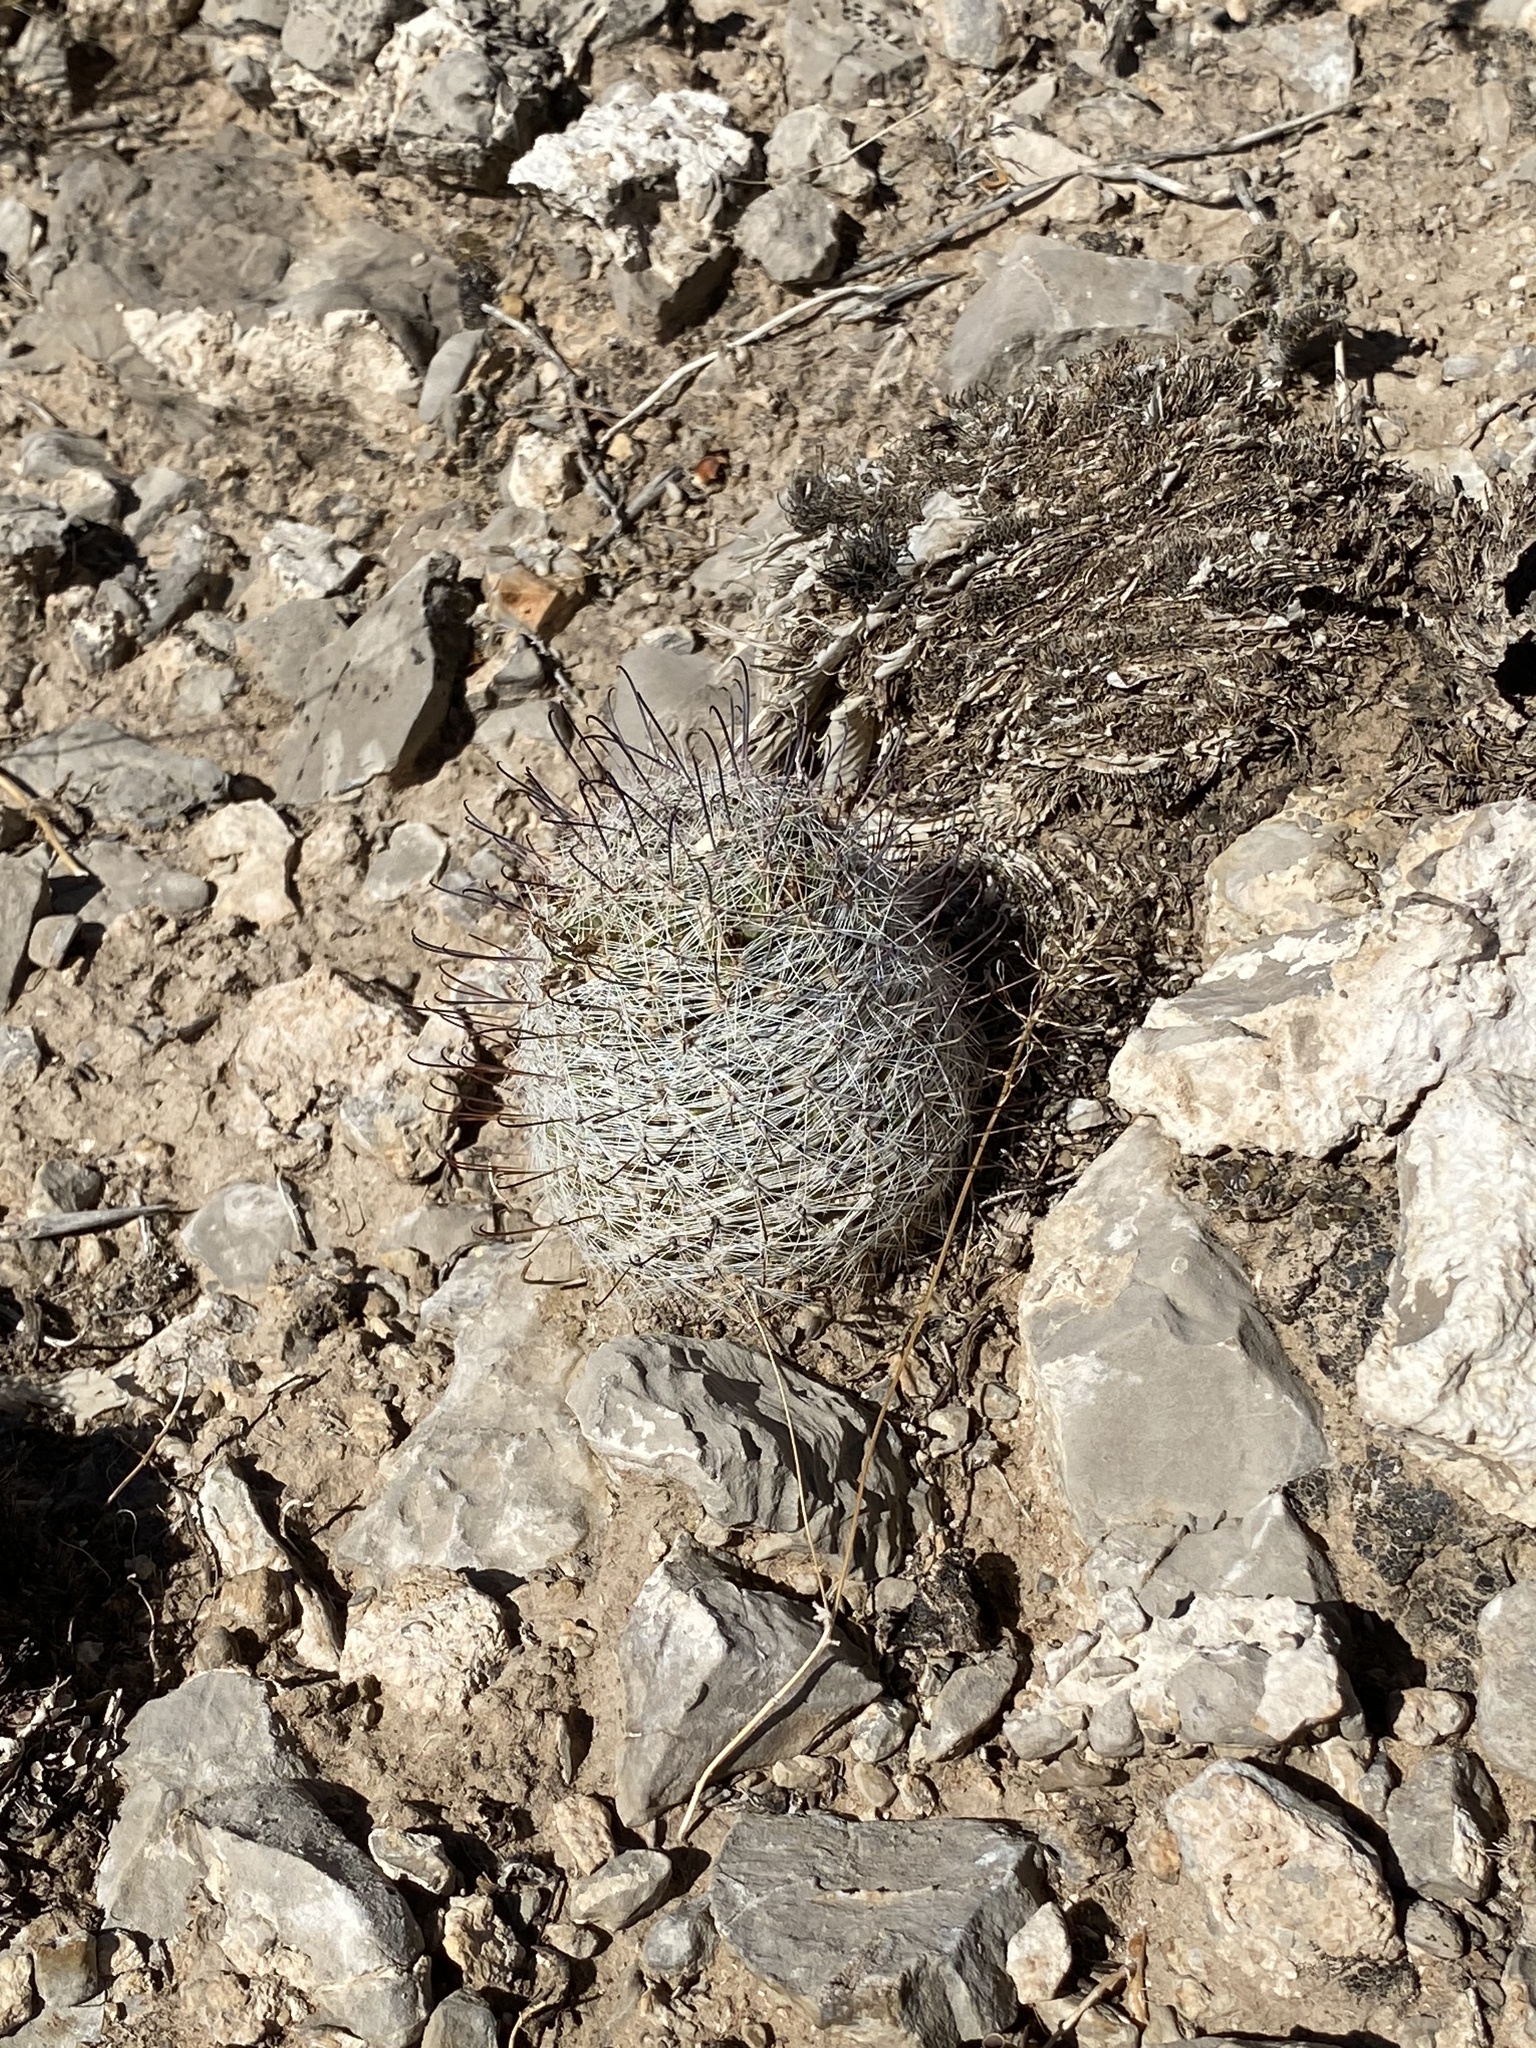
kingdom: Plantae
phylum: Tracheophyta
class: Magnoliopsida
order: Caryophyllales
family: Cactaceae
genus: Cochemiea
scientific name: Cochemiea grahamii
